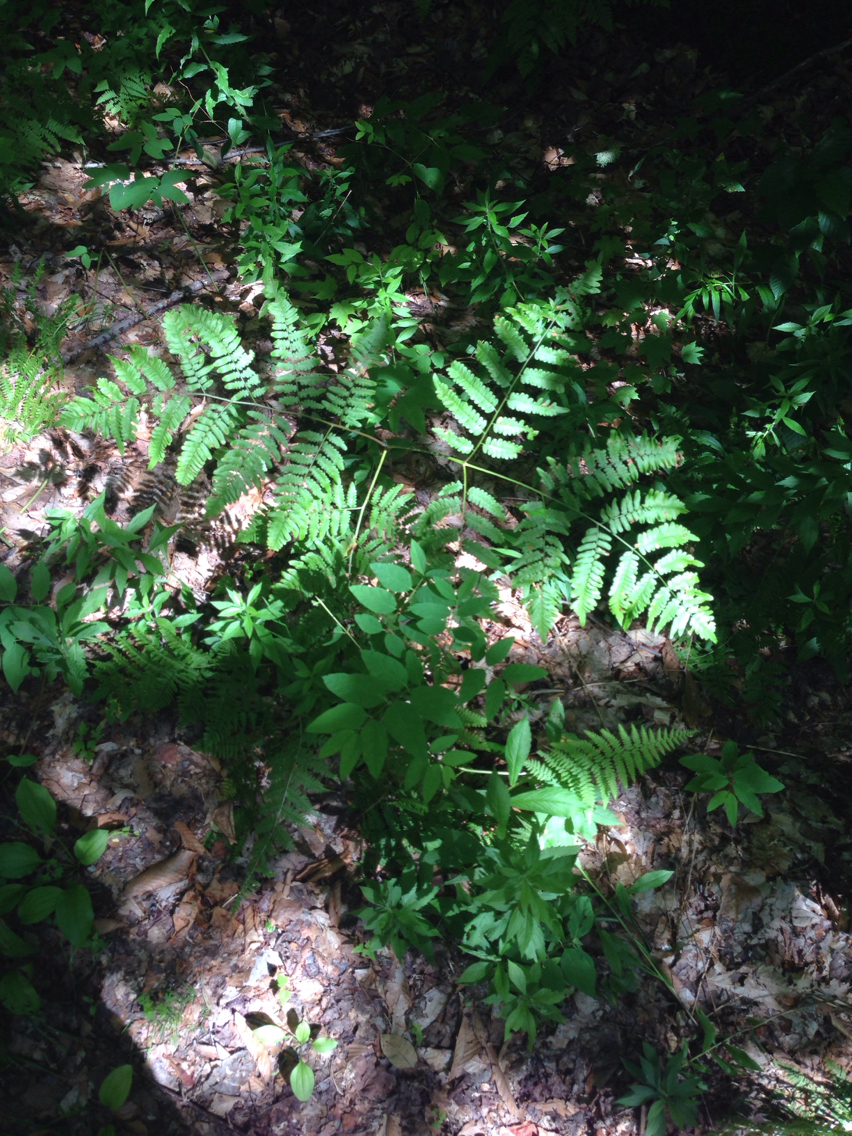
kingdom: Plantae
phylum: Tracheophyta
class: Polypodiopsida
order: Polypodiales
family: Dennstaedtiaceae
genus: Pteridium
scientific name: Pteridium aquilinum
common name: Bracken
